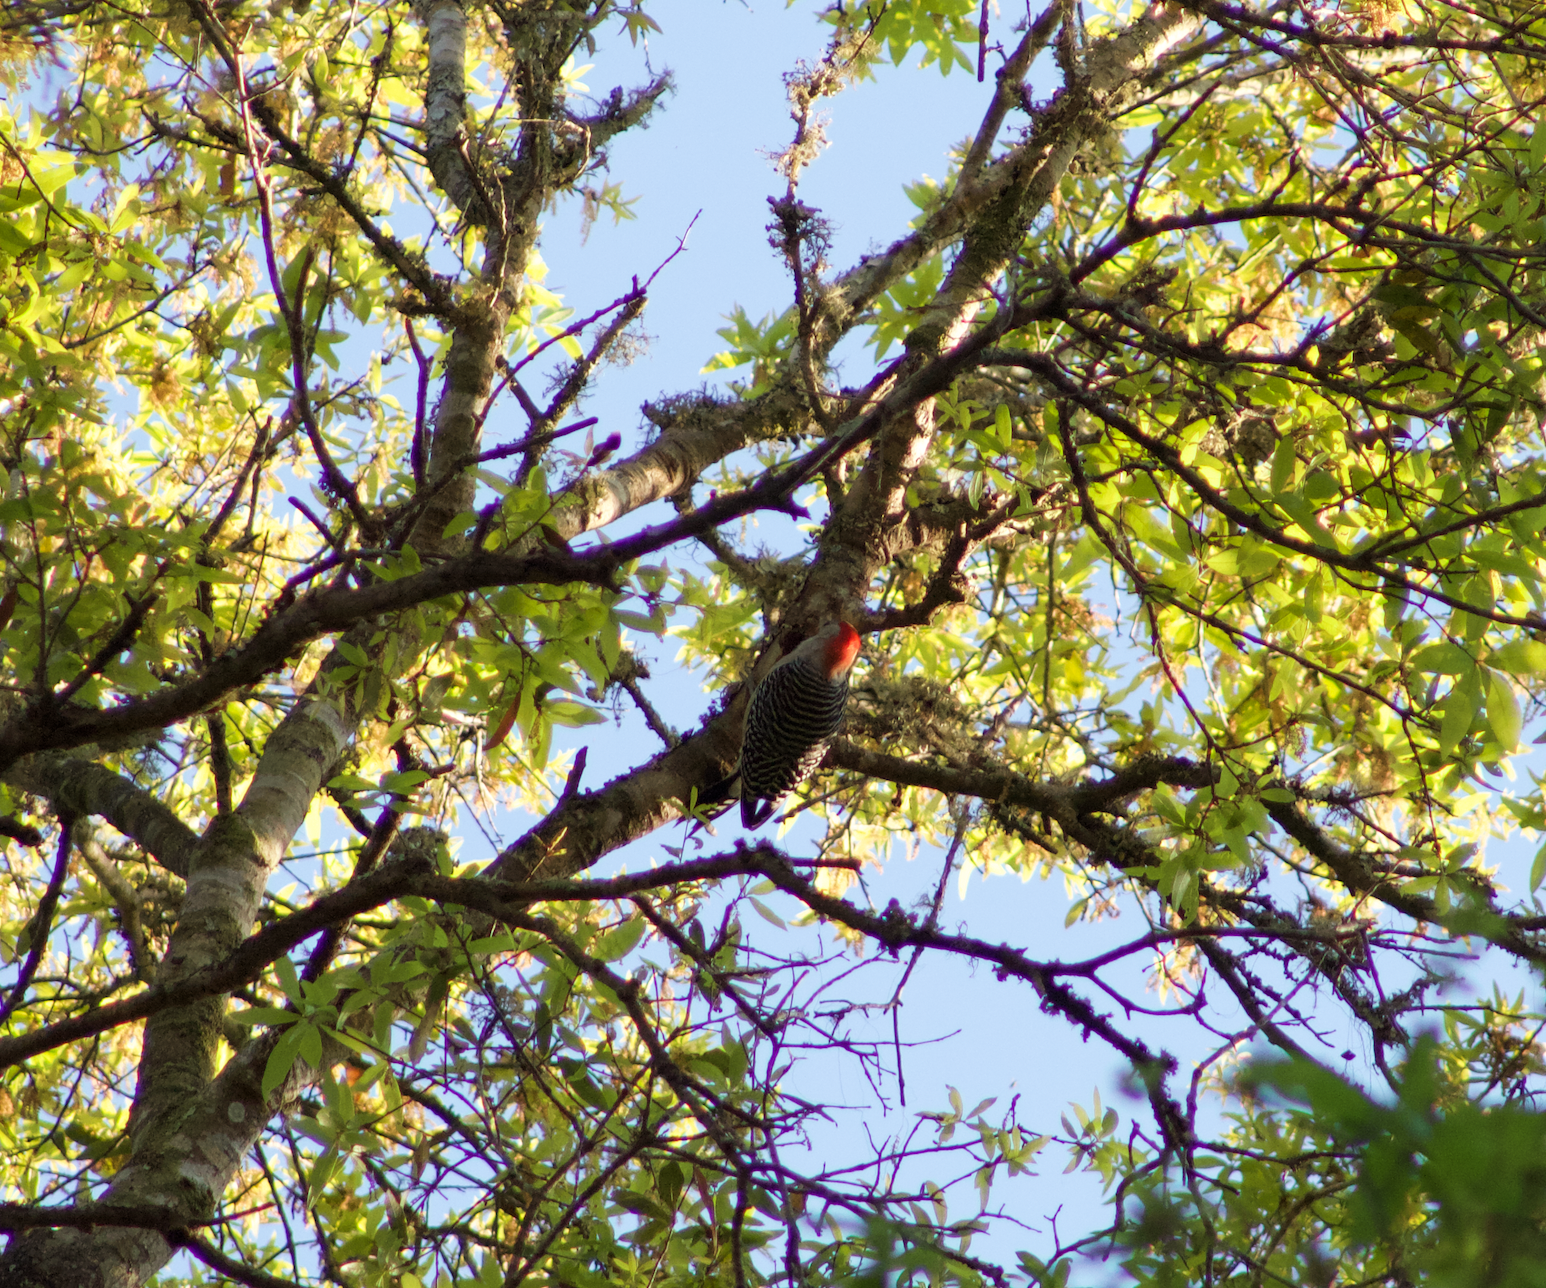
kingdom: Animalia
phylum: Chordata
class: Aves
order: Piciformes
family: Picidae
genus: Melanerpes
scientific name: Melanerpes carolinus
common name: Red-bellied woodpecker
